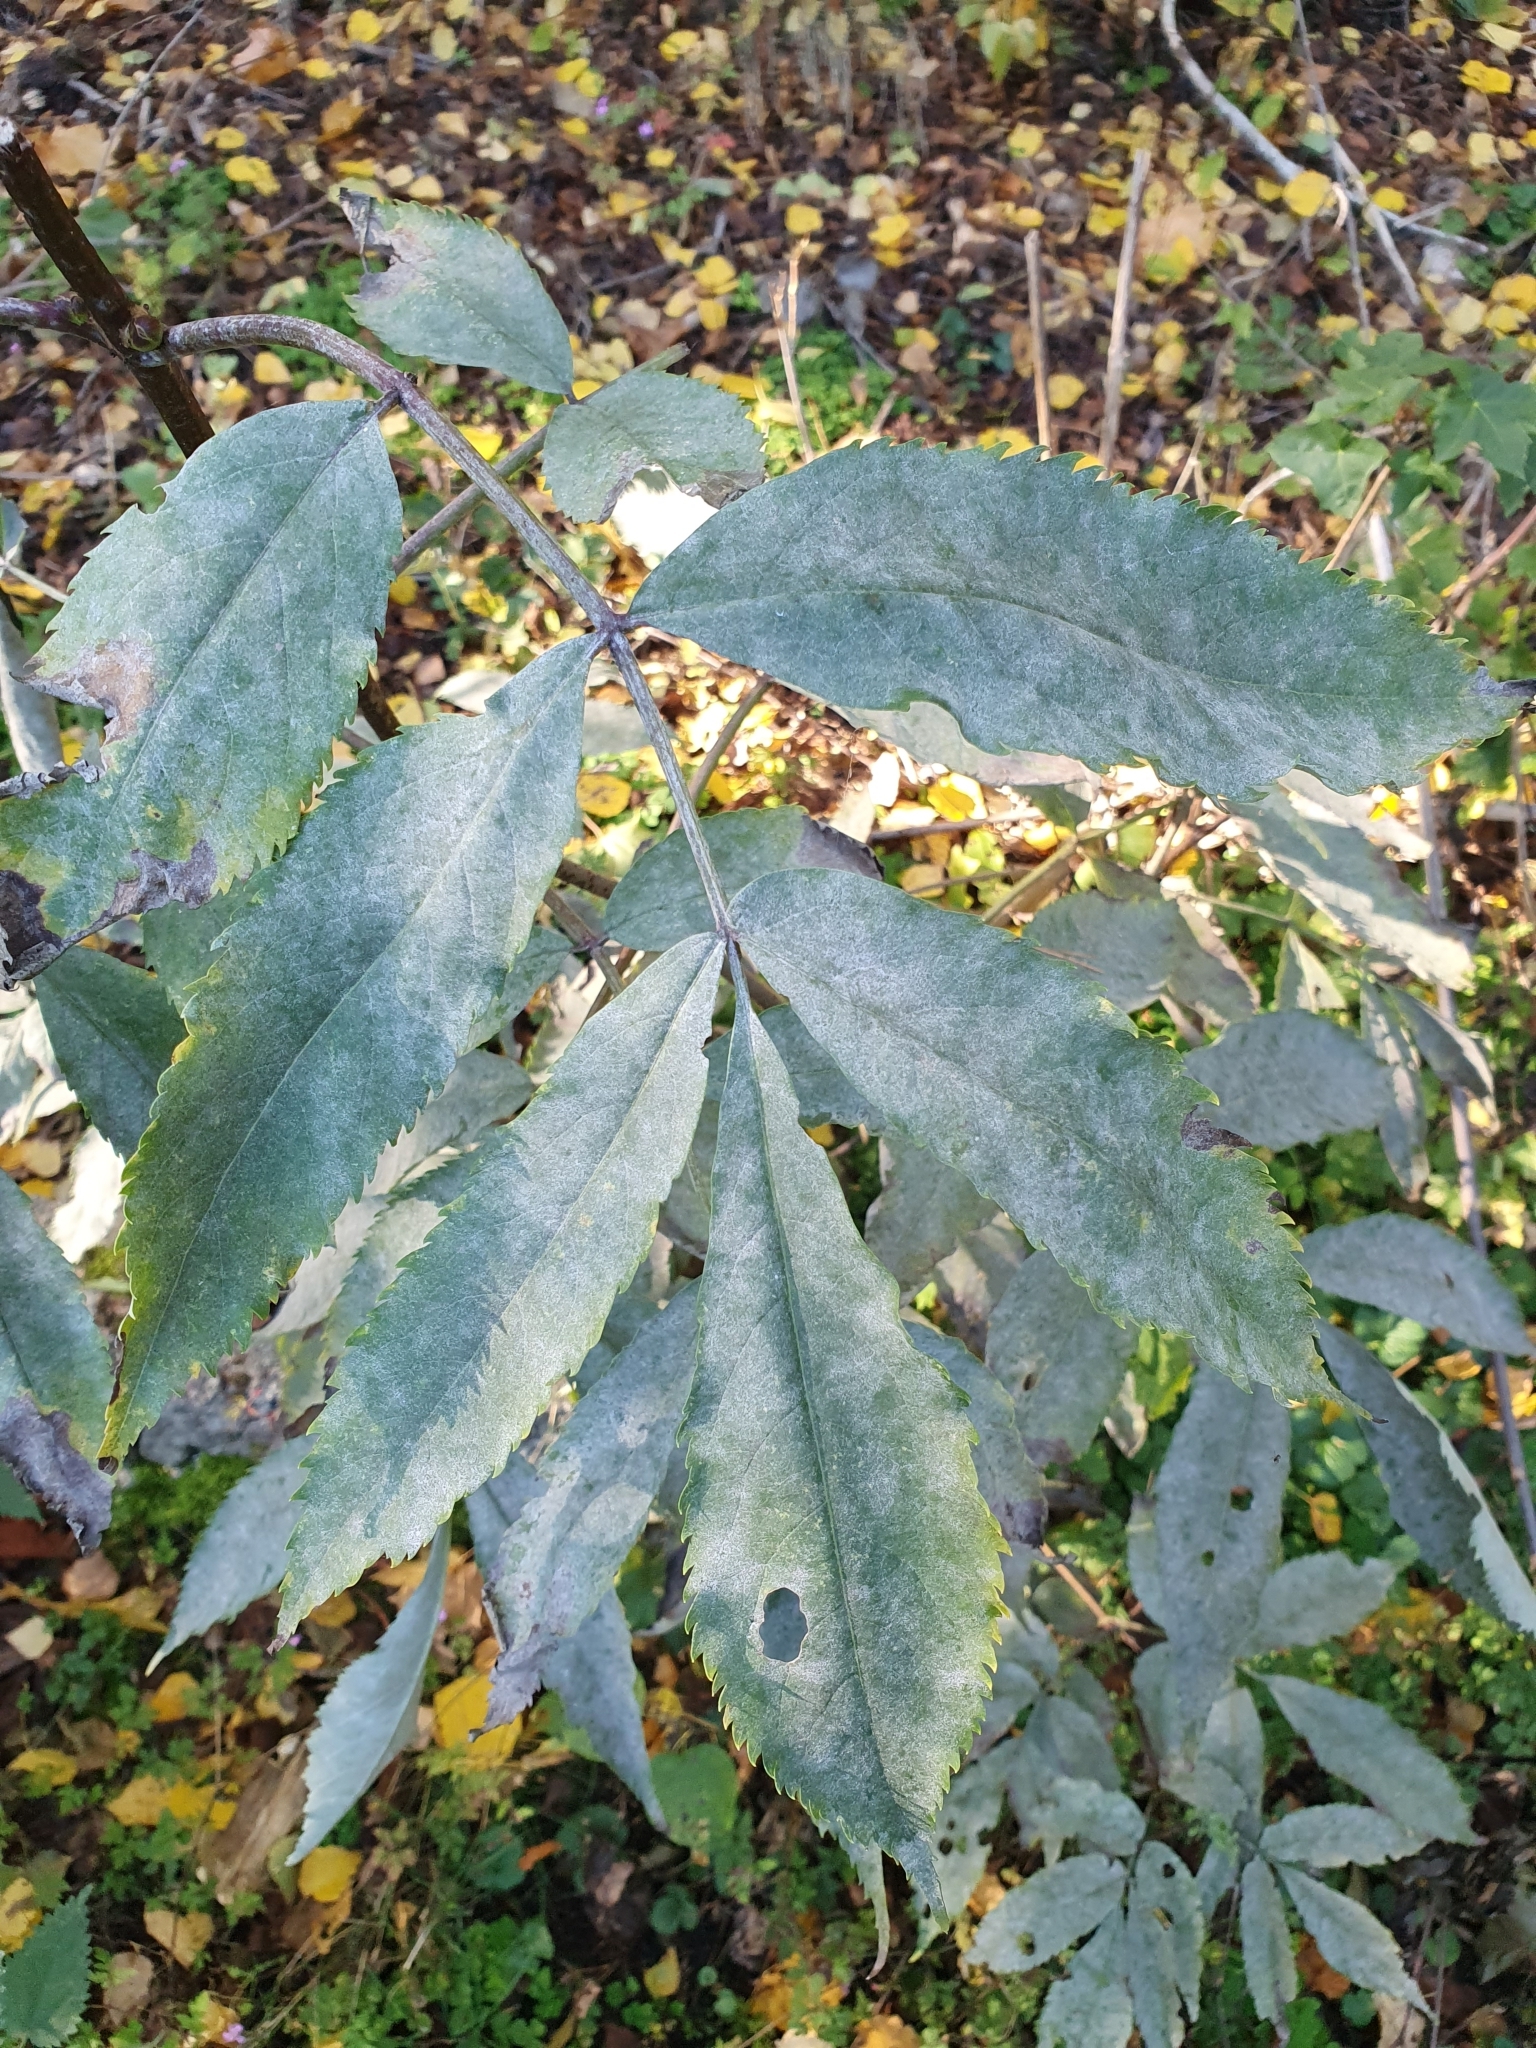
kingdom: Plantae
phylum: Tracheophyta
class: Magnoliopsida
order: Dipsacales
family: Viburnaceae
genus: Sambucus
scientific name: Sambucus racemosa
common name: Red-berried elder
